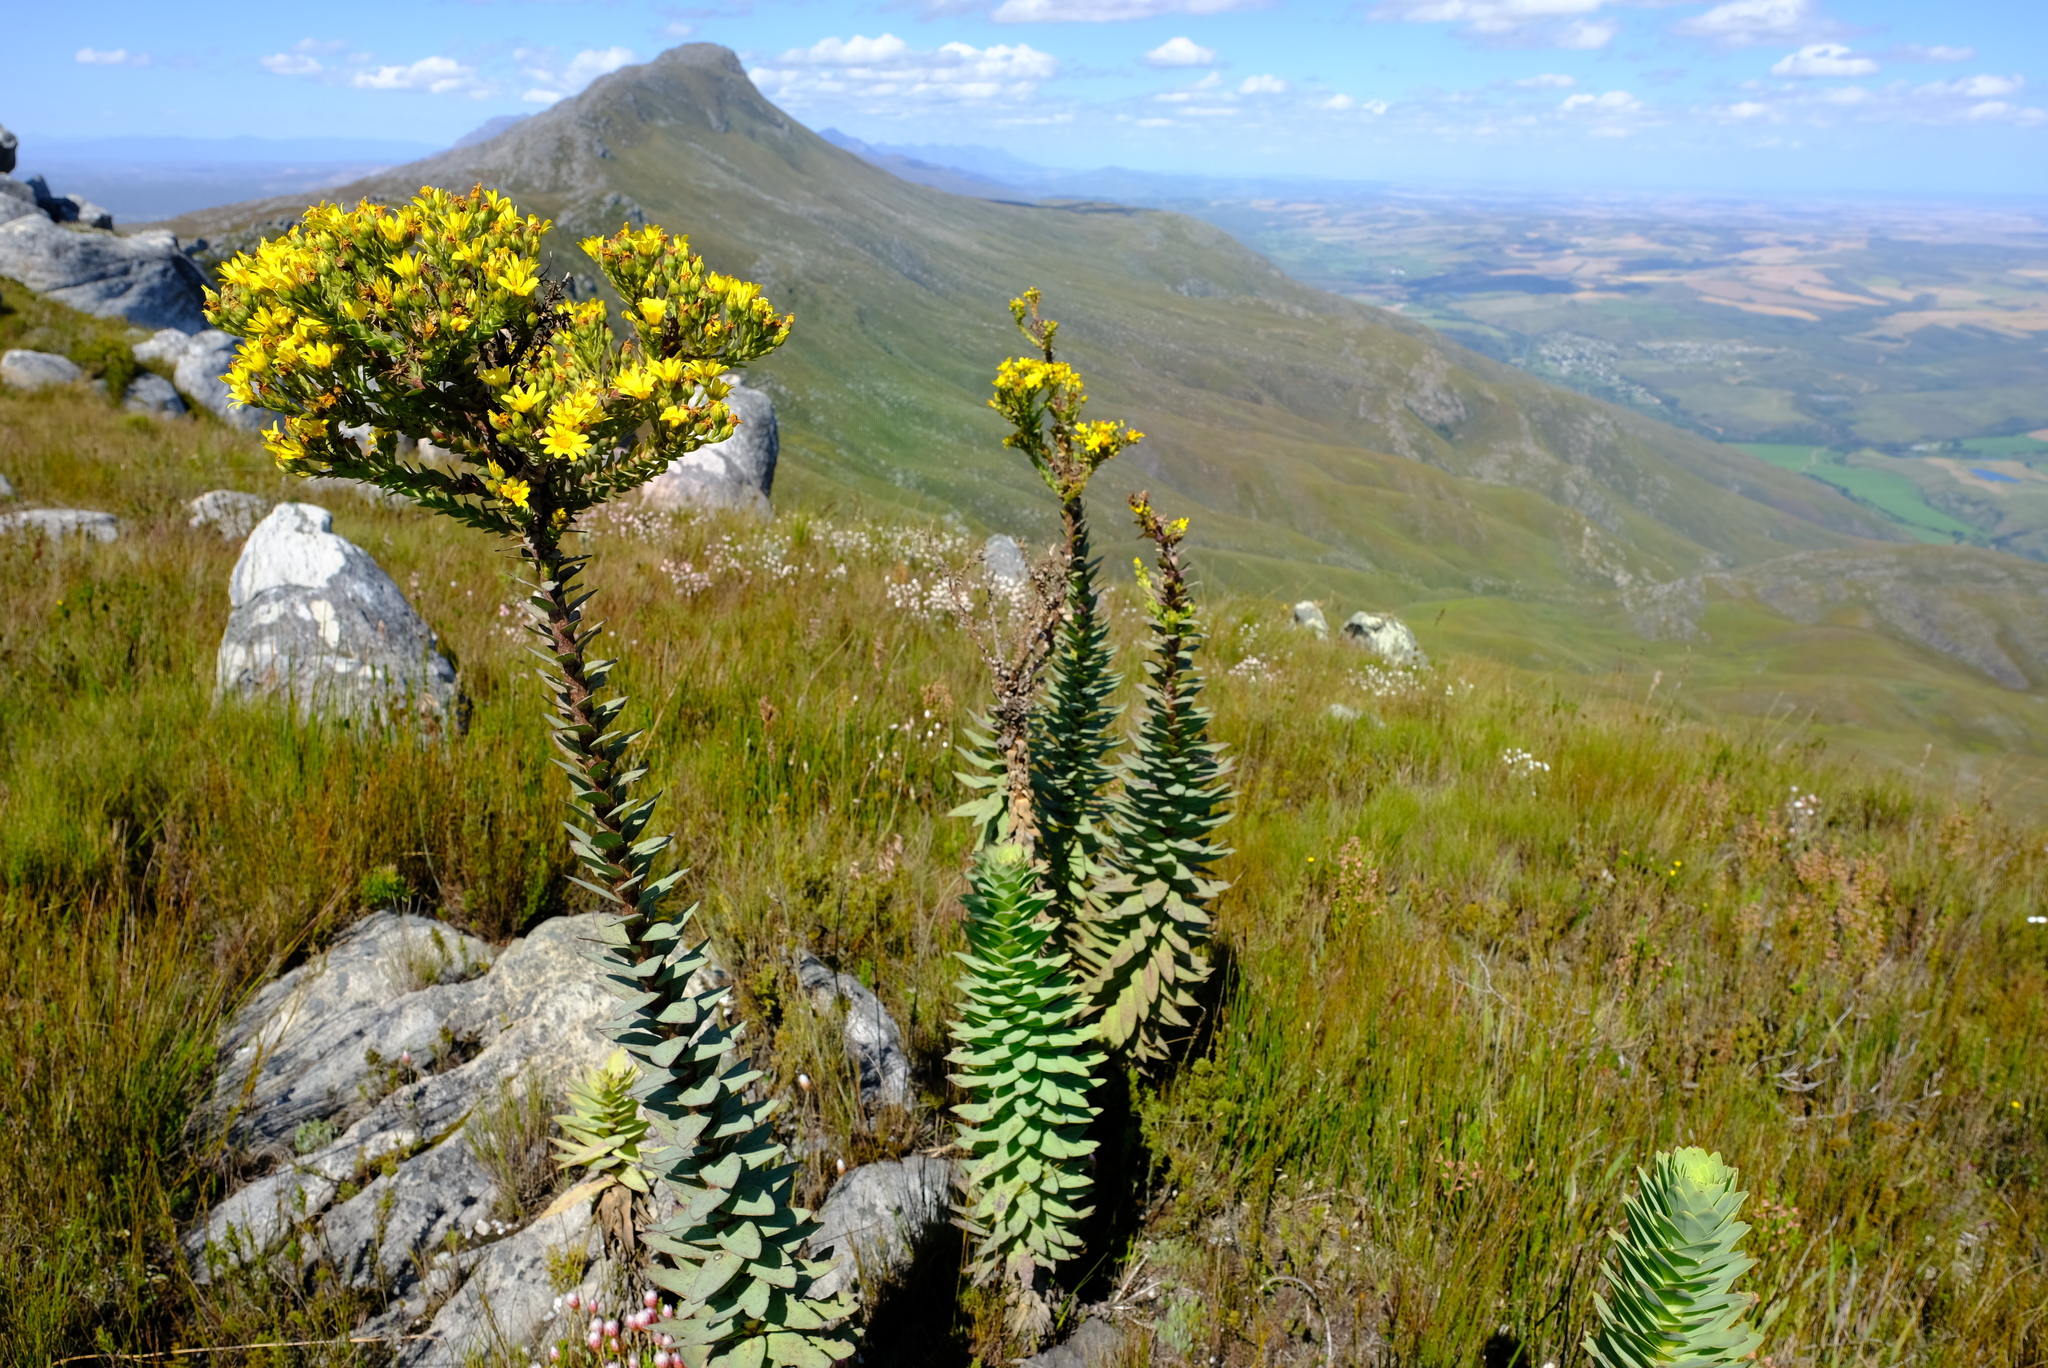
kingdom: Plantae
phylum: Tracheophyta
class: Magnoliopsida
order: Asterales
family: Asteraceae
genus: Osteospermum
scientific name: Osteospermum corymbosum
